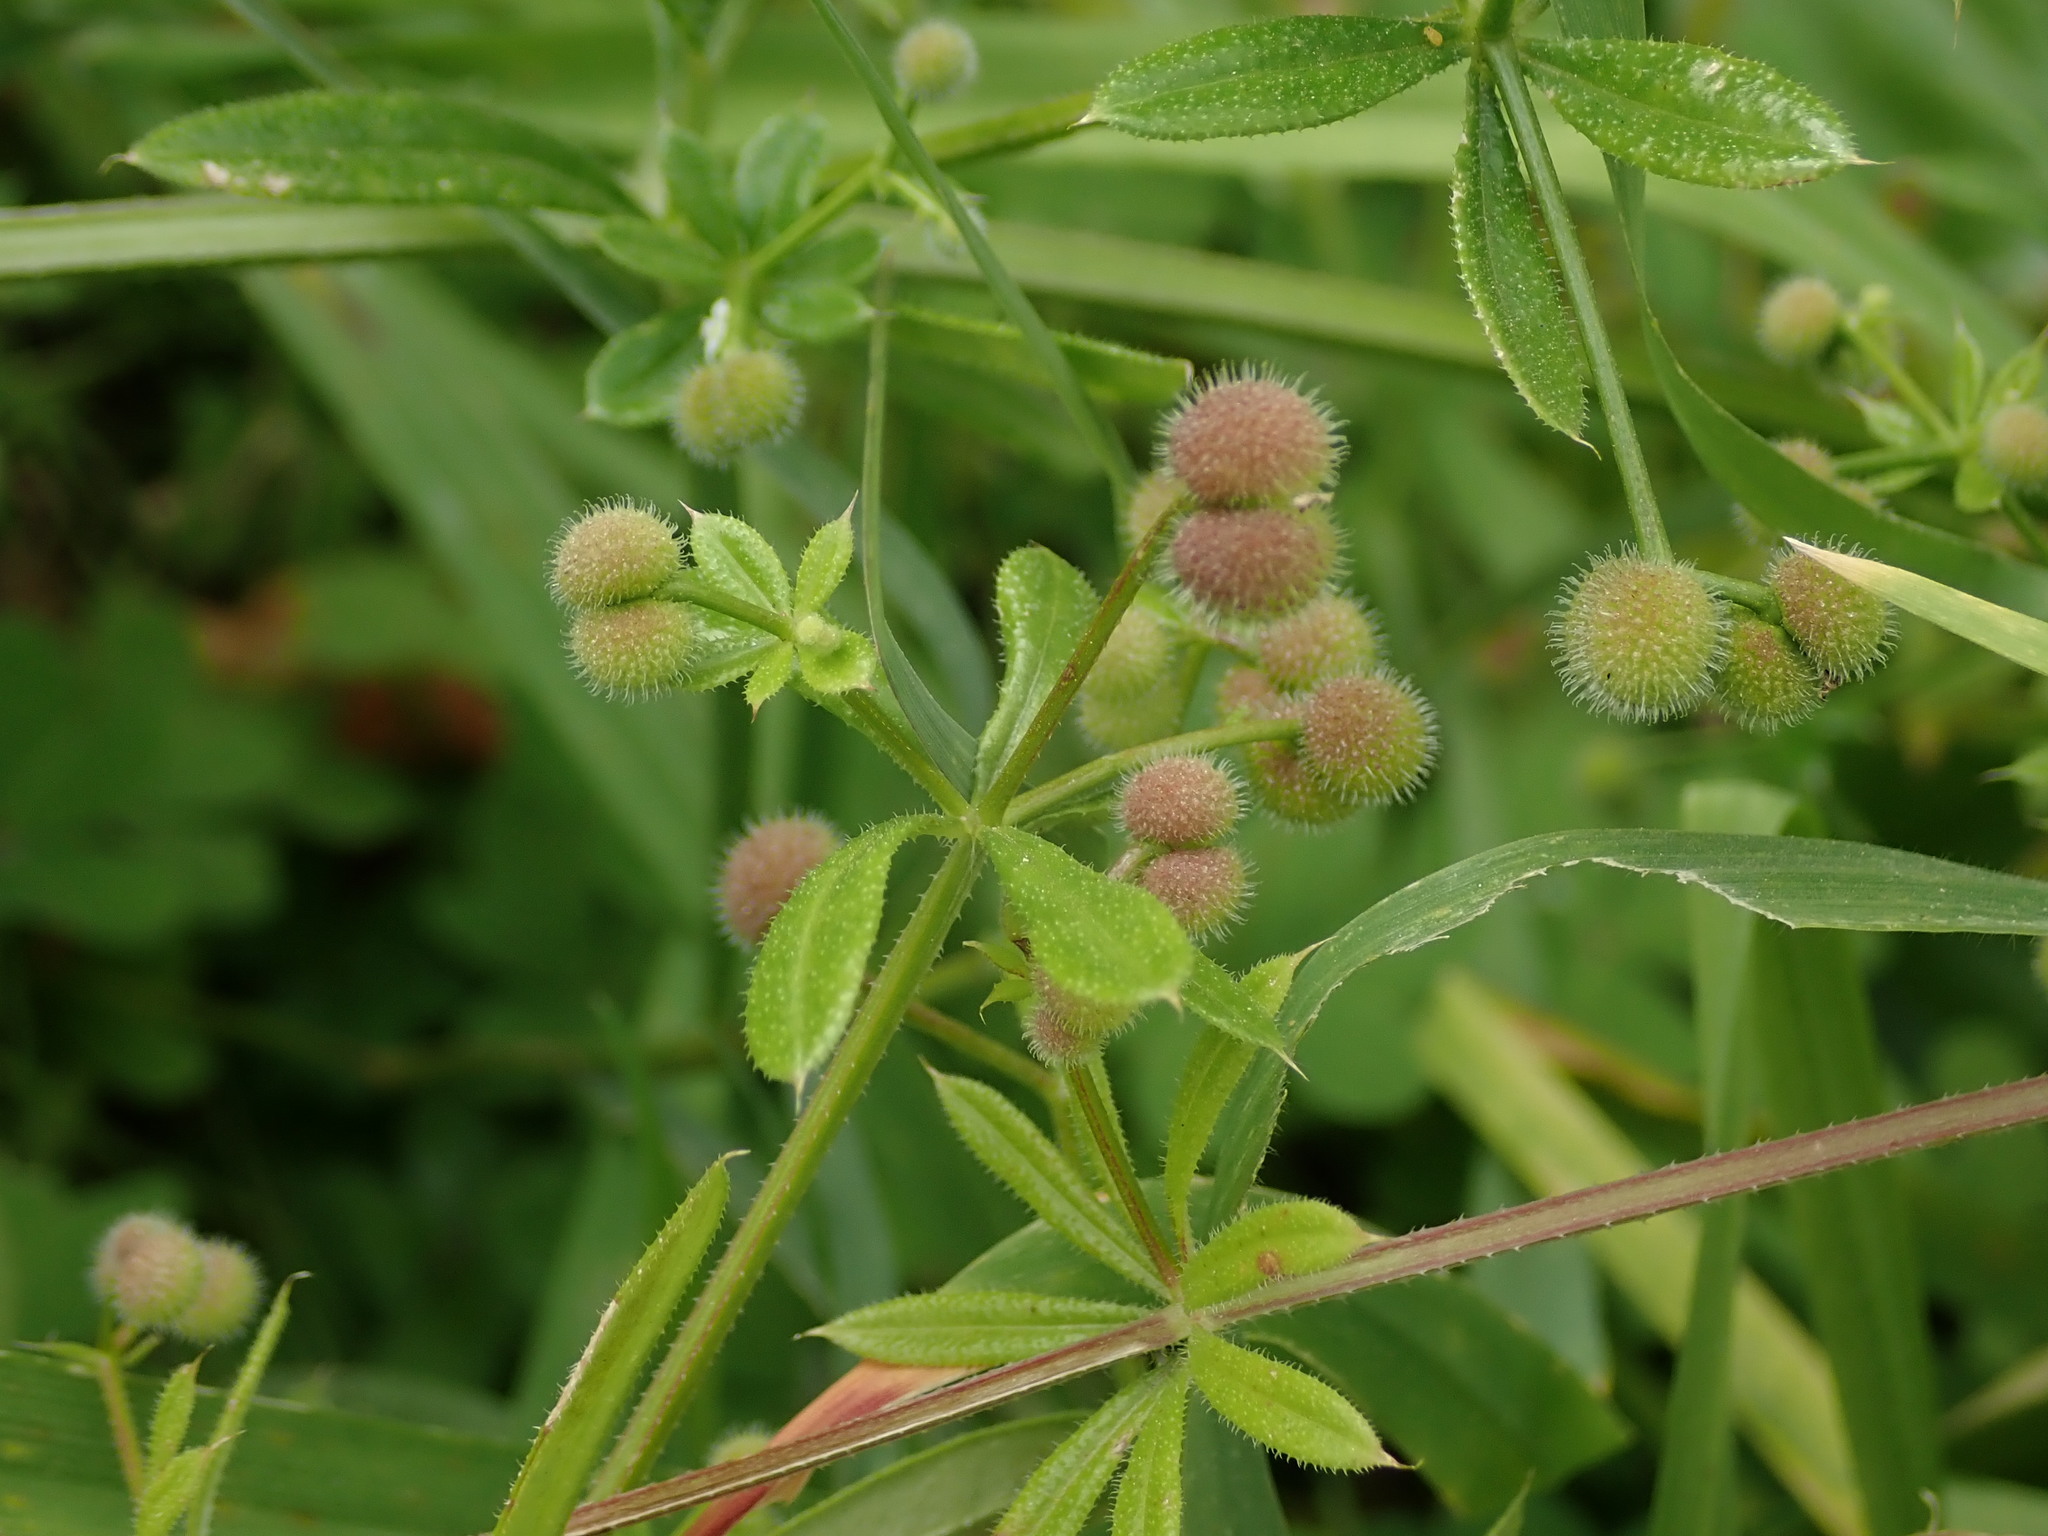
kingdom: Plantae
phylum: Tracheophyta
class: Magnoliopsida
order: Gentianales
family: Rubiaceae
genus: Galium
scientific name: Galium aparine
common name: Cleavers
